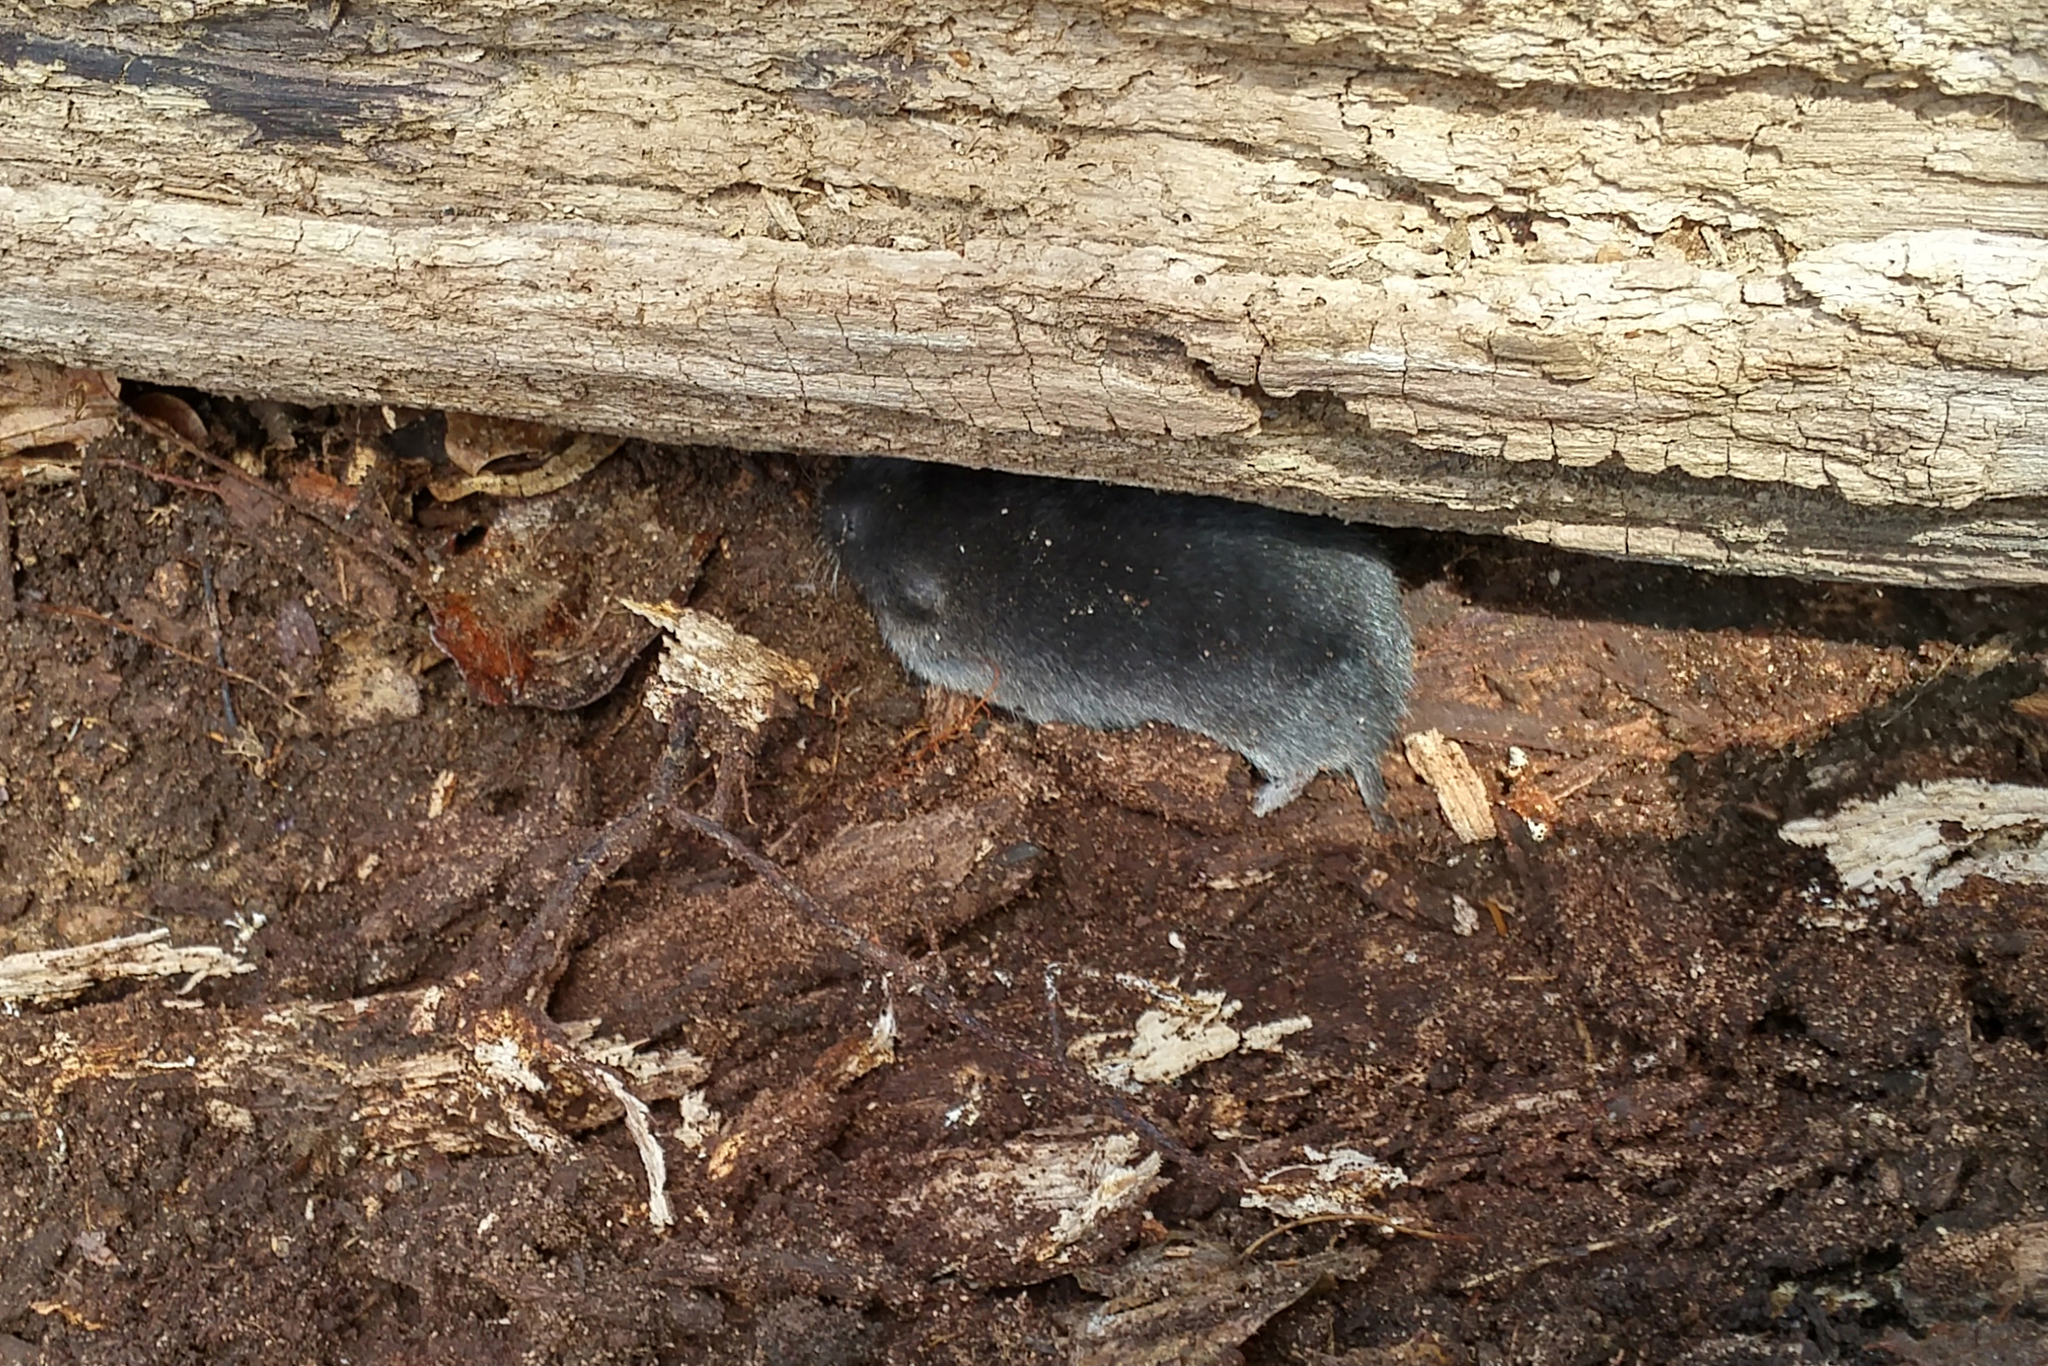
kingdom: Animalia
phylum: Chordata
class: Mammalia
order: Rodentia
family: Cricetidae
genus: Microtus
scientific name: Microtus pennsylvanicus
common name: Meadow vole
